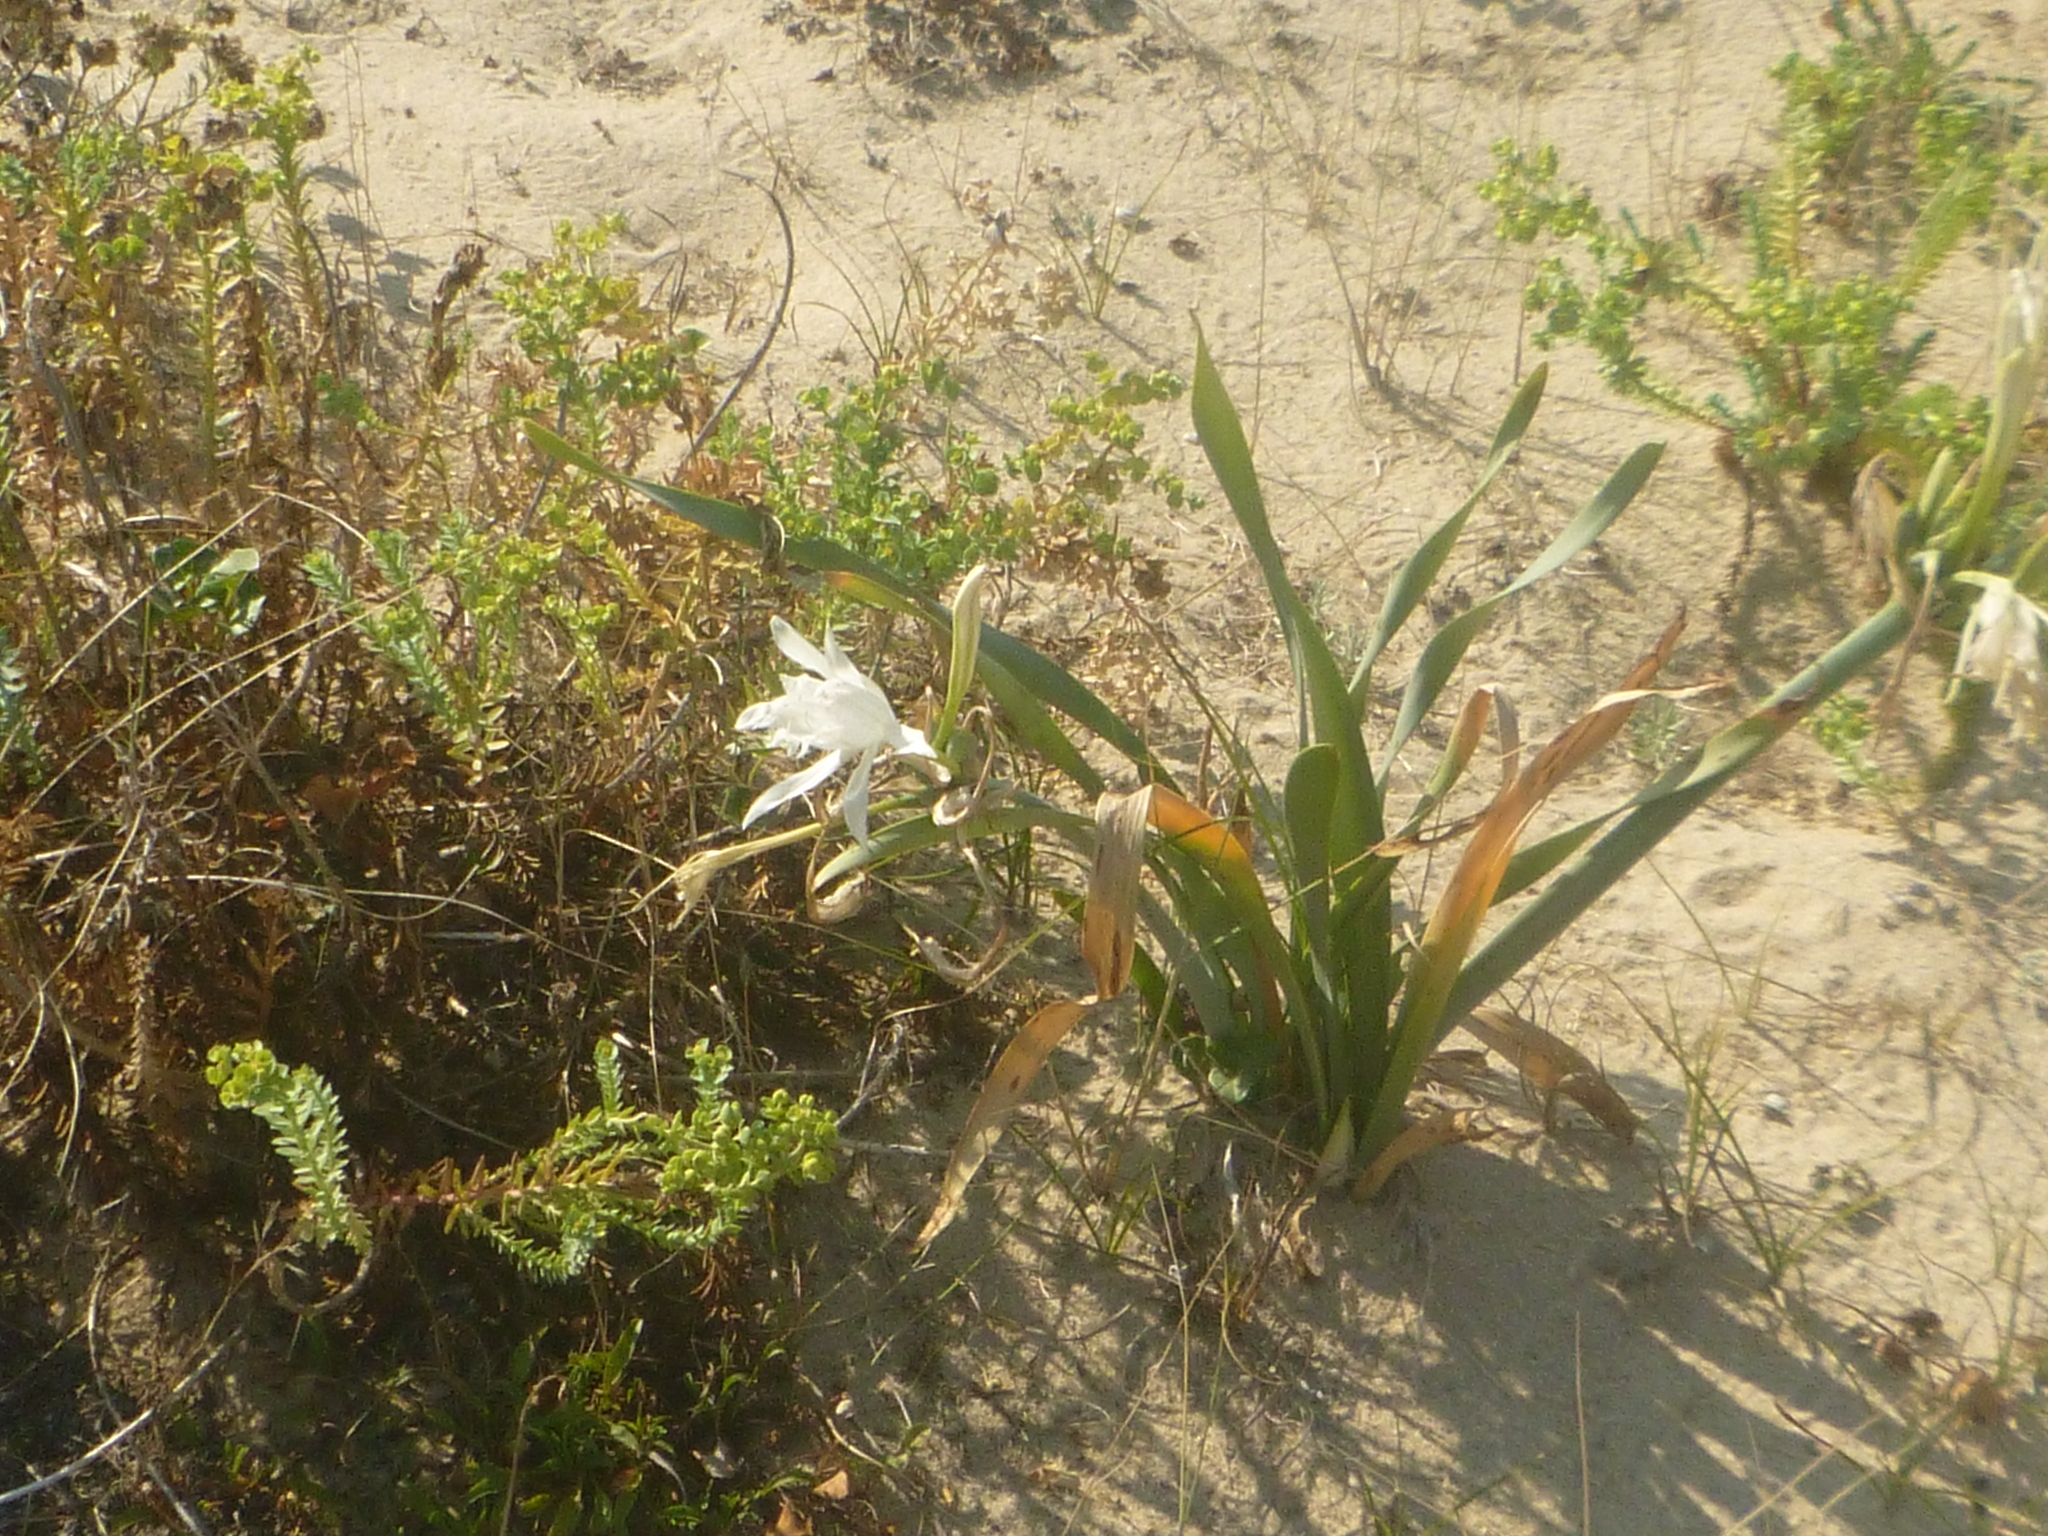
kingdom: Plantae
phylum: Tracheophyta
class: Liliopsida
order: Asparagales
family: Amaryllidaceae
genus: Pancratium
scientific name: Pancratium maritimum
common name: Sea-daffodil
